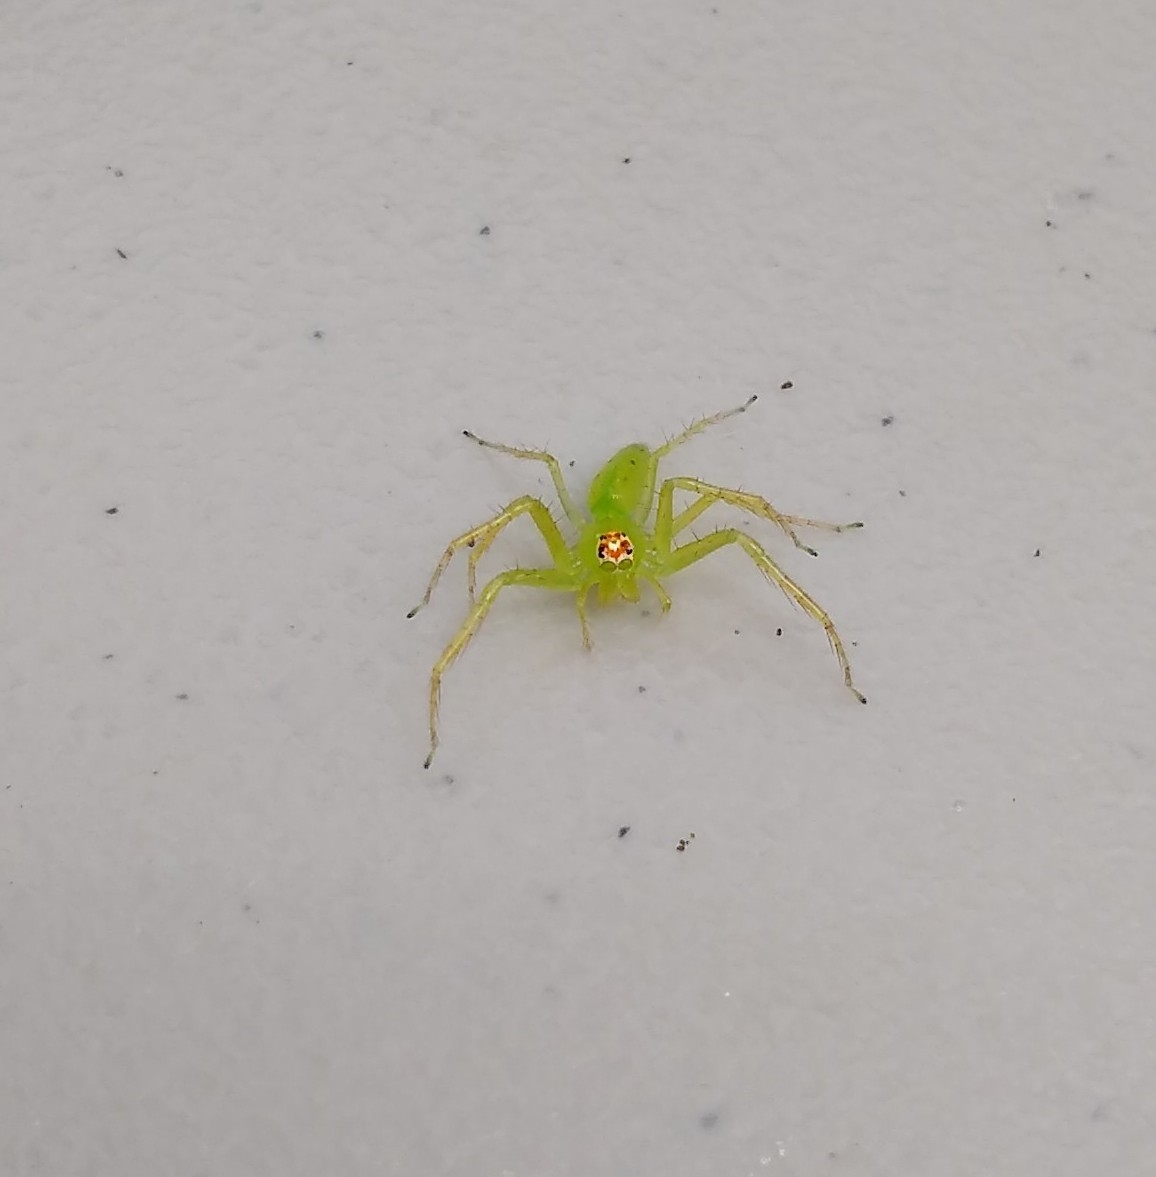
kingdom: Animalia
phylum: Arthropoda
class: Arachnida
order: Araneae
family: Salticidae
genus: Lyssomanes
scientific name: Lyssomanes viridis
